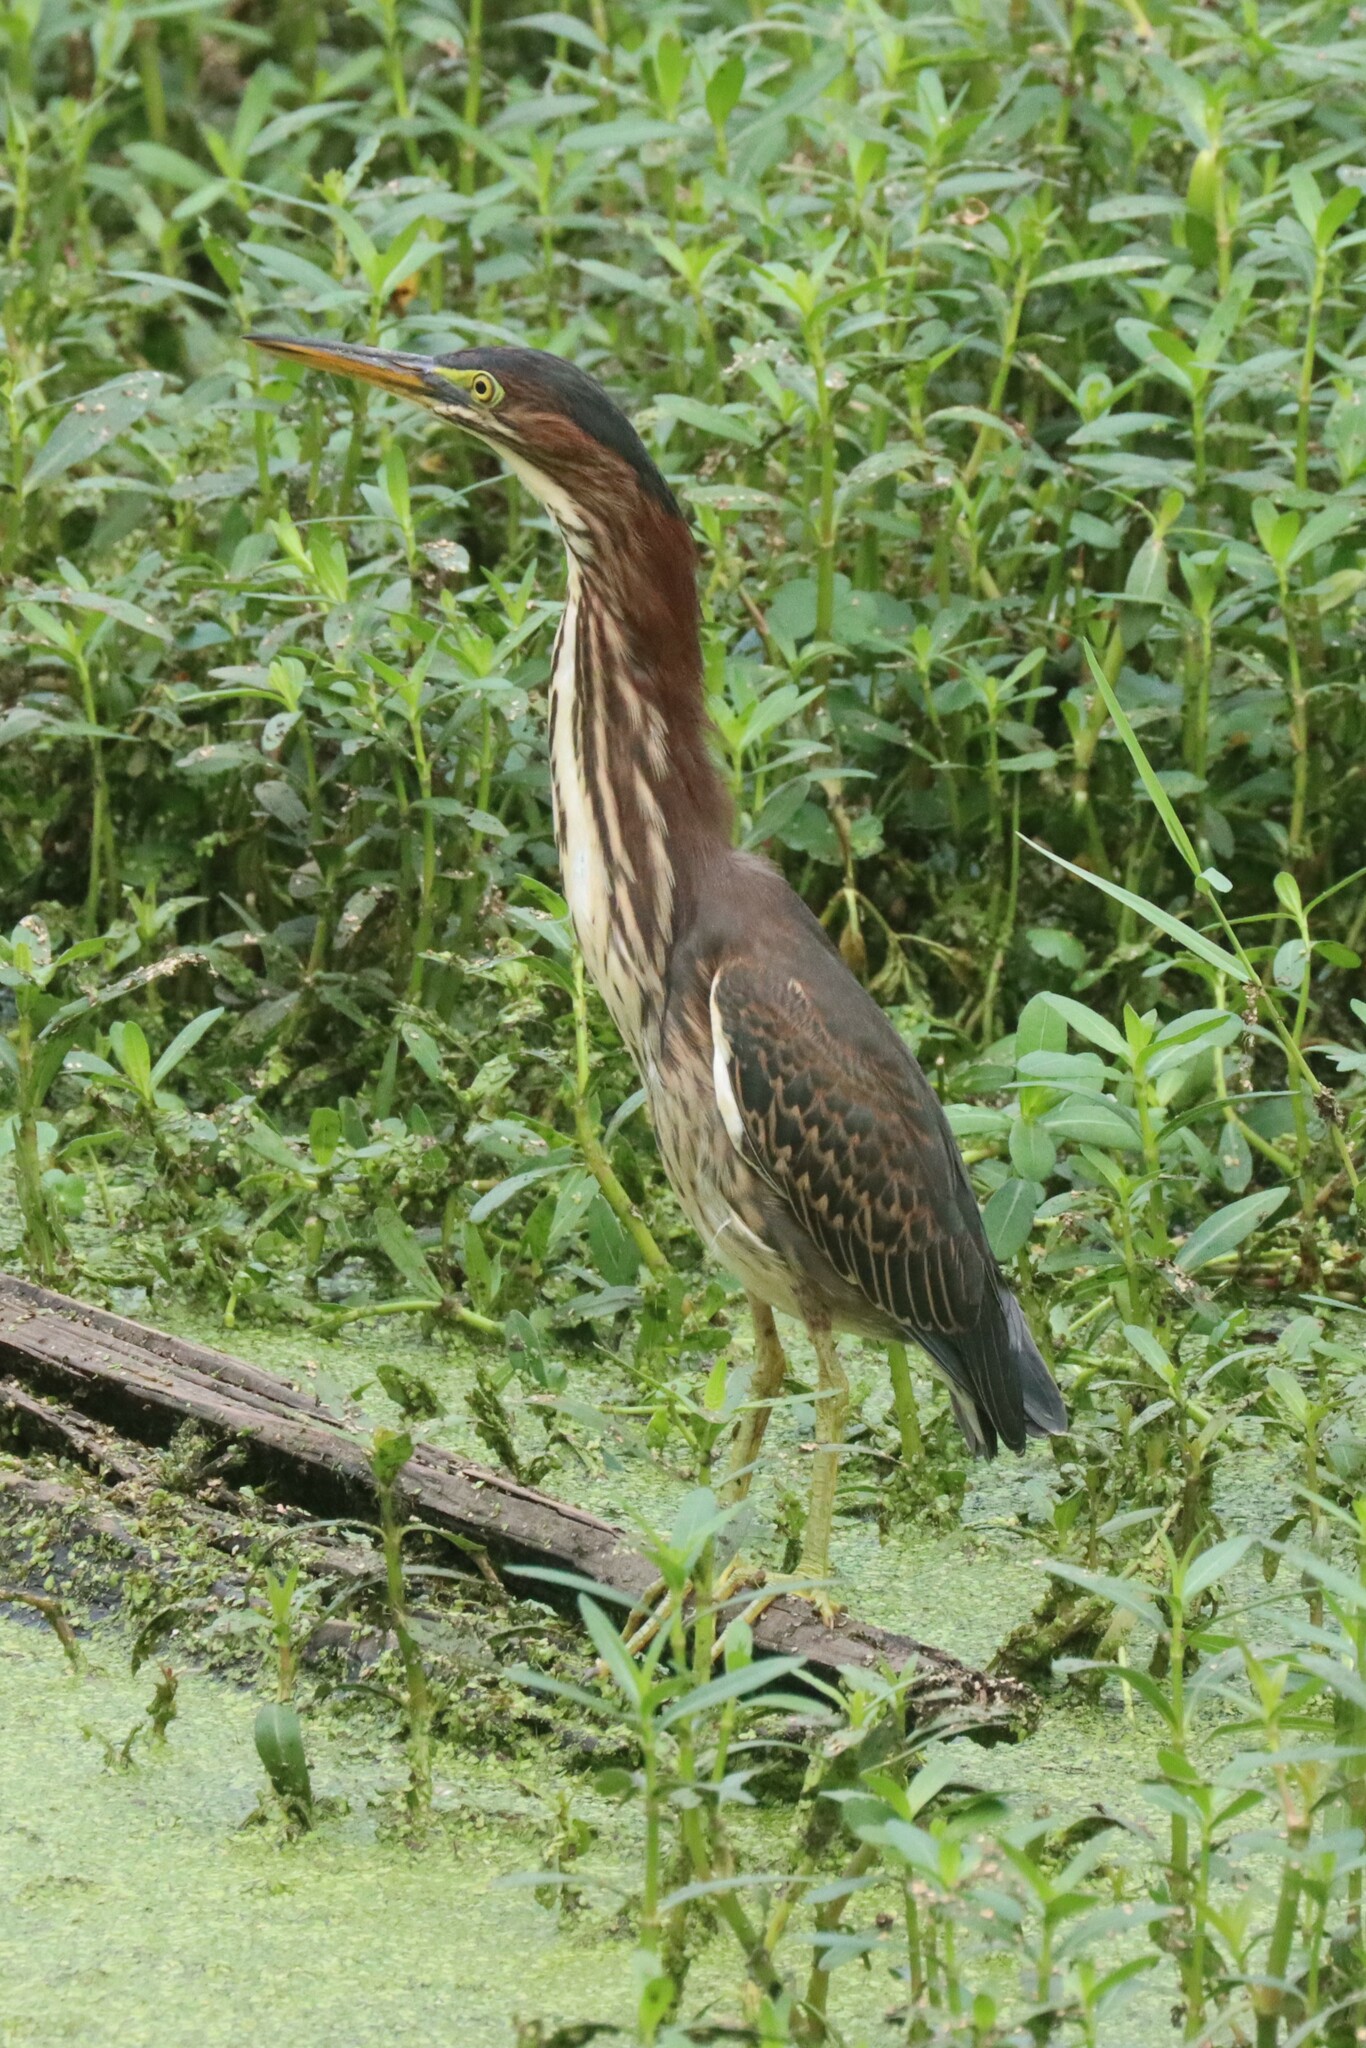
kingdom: Animalia
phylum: Chordata
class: Aves
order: Pelecaniformes
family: Ardeidae
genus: Butorides
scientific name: Butorides virescens
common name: Green heron
